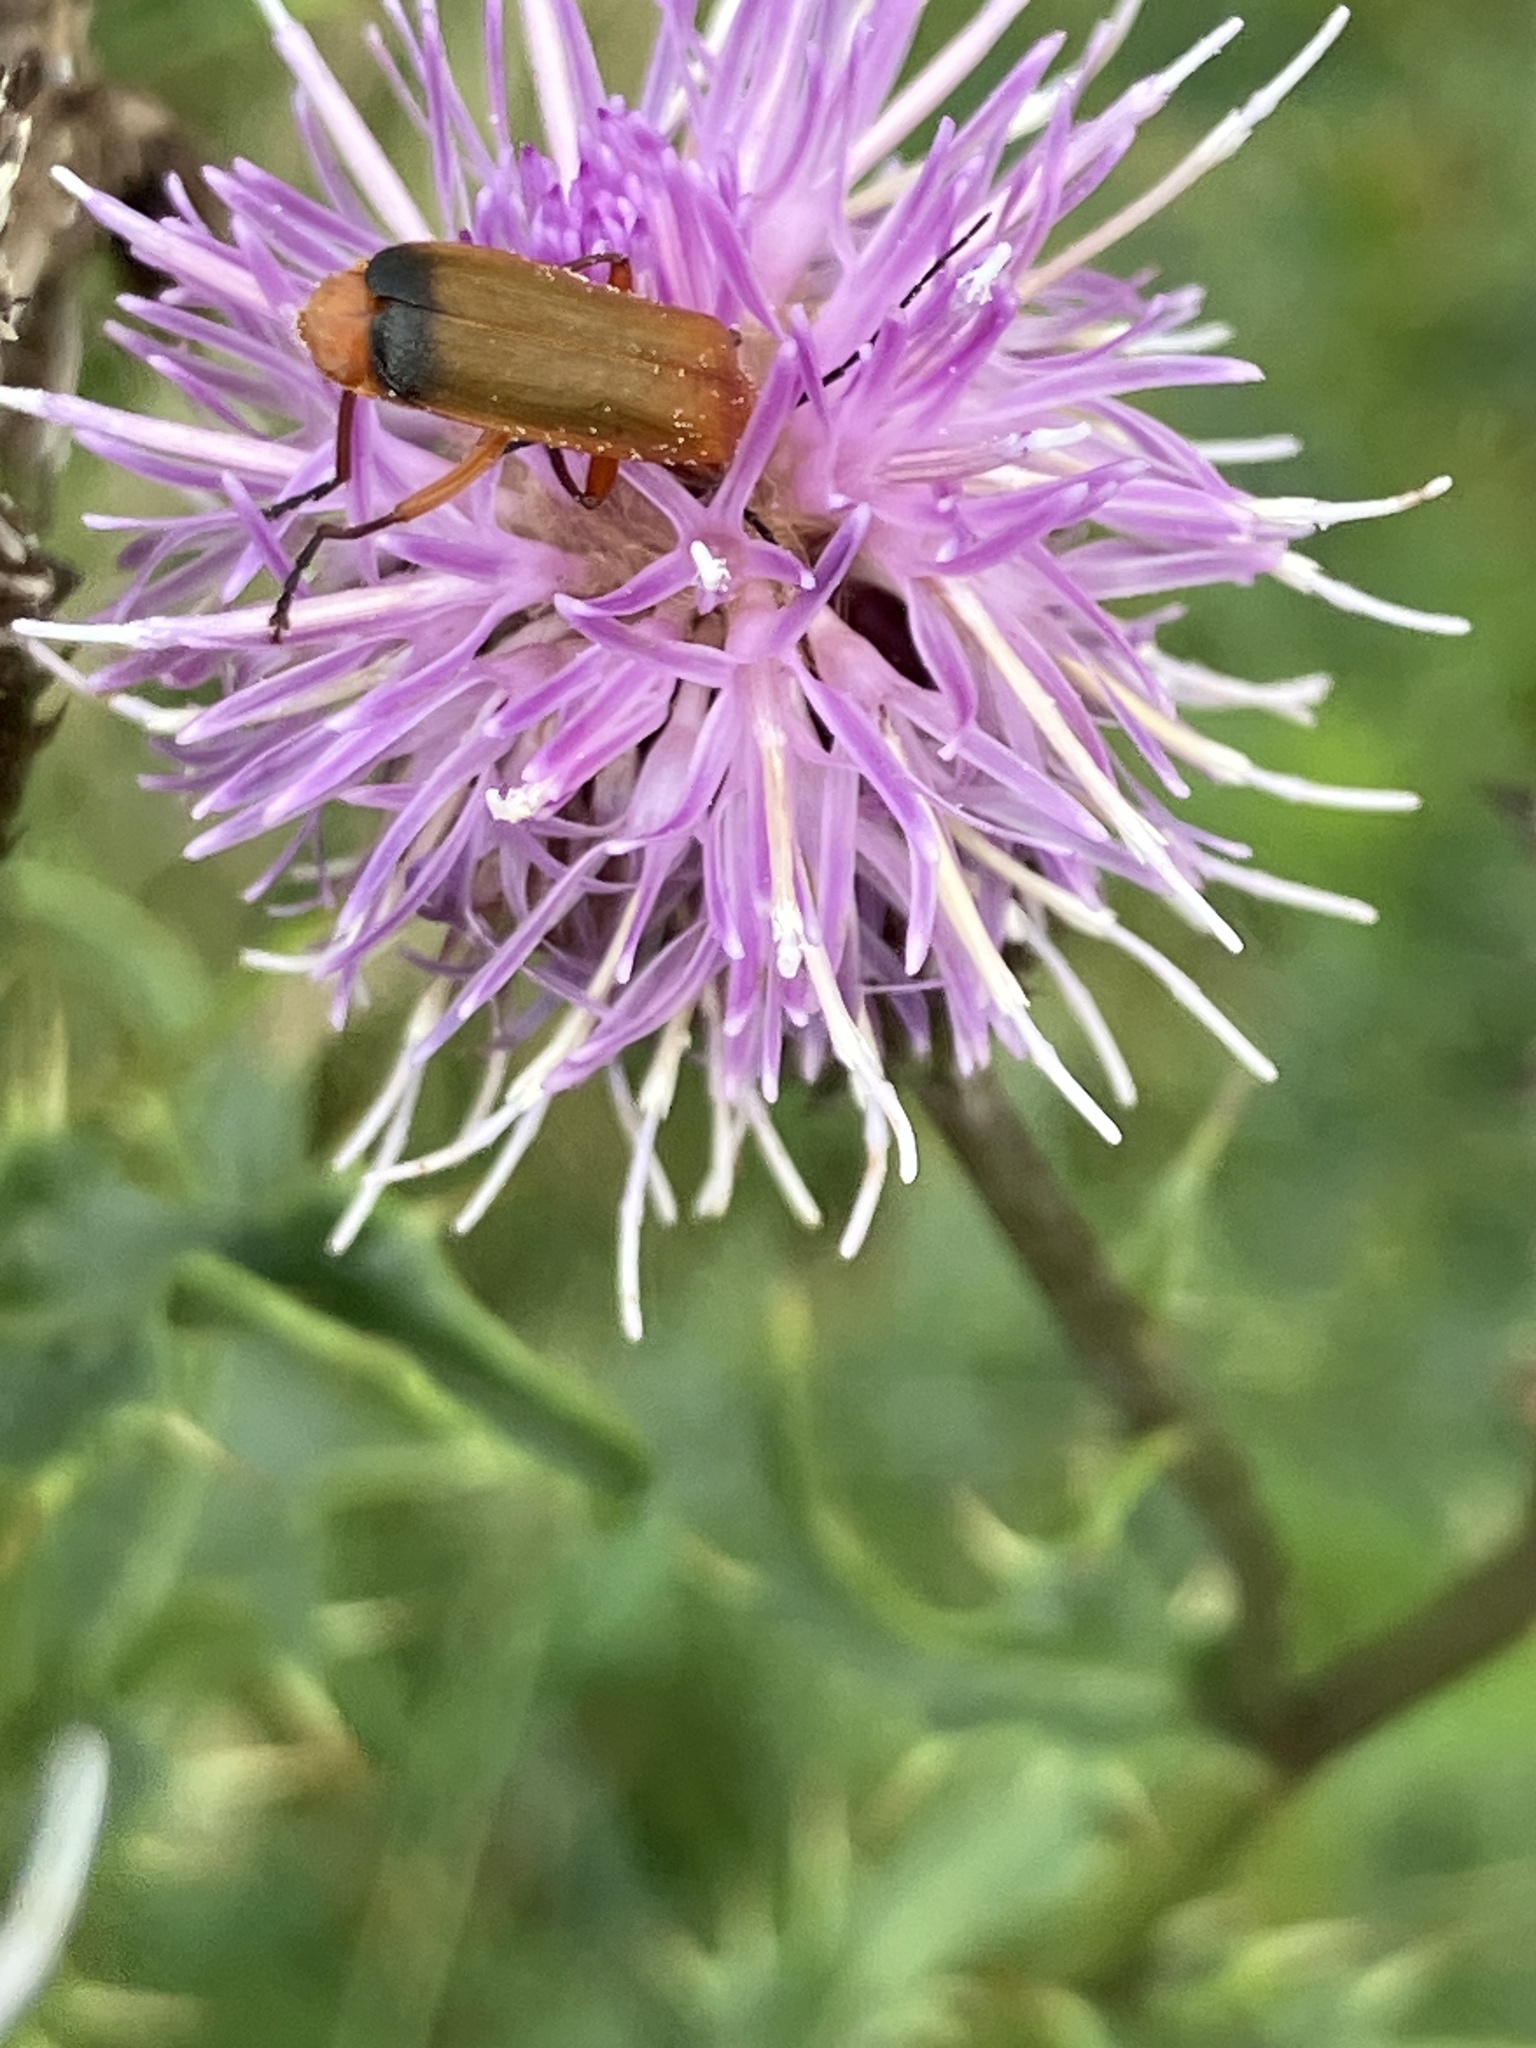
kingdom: Animalia
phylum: Arthropoda
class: Insecta
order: Coleoptera
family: Cantharidae
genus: Rhagonycha
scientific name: Rhagonycha fulva
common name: Common red soldier beetle
